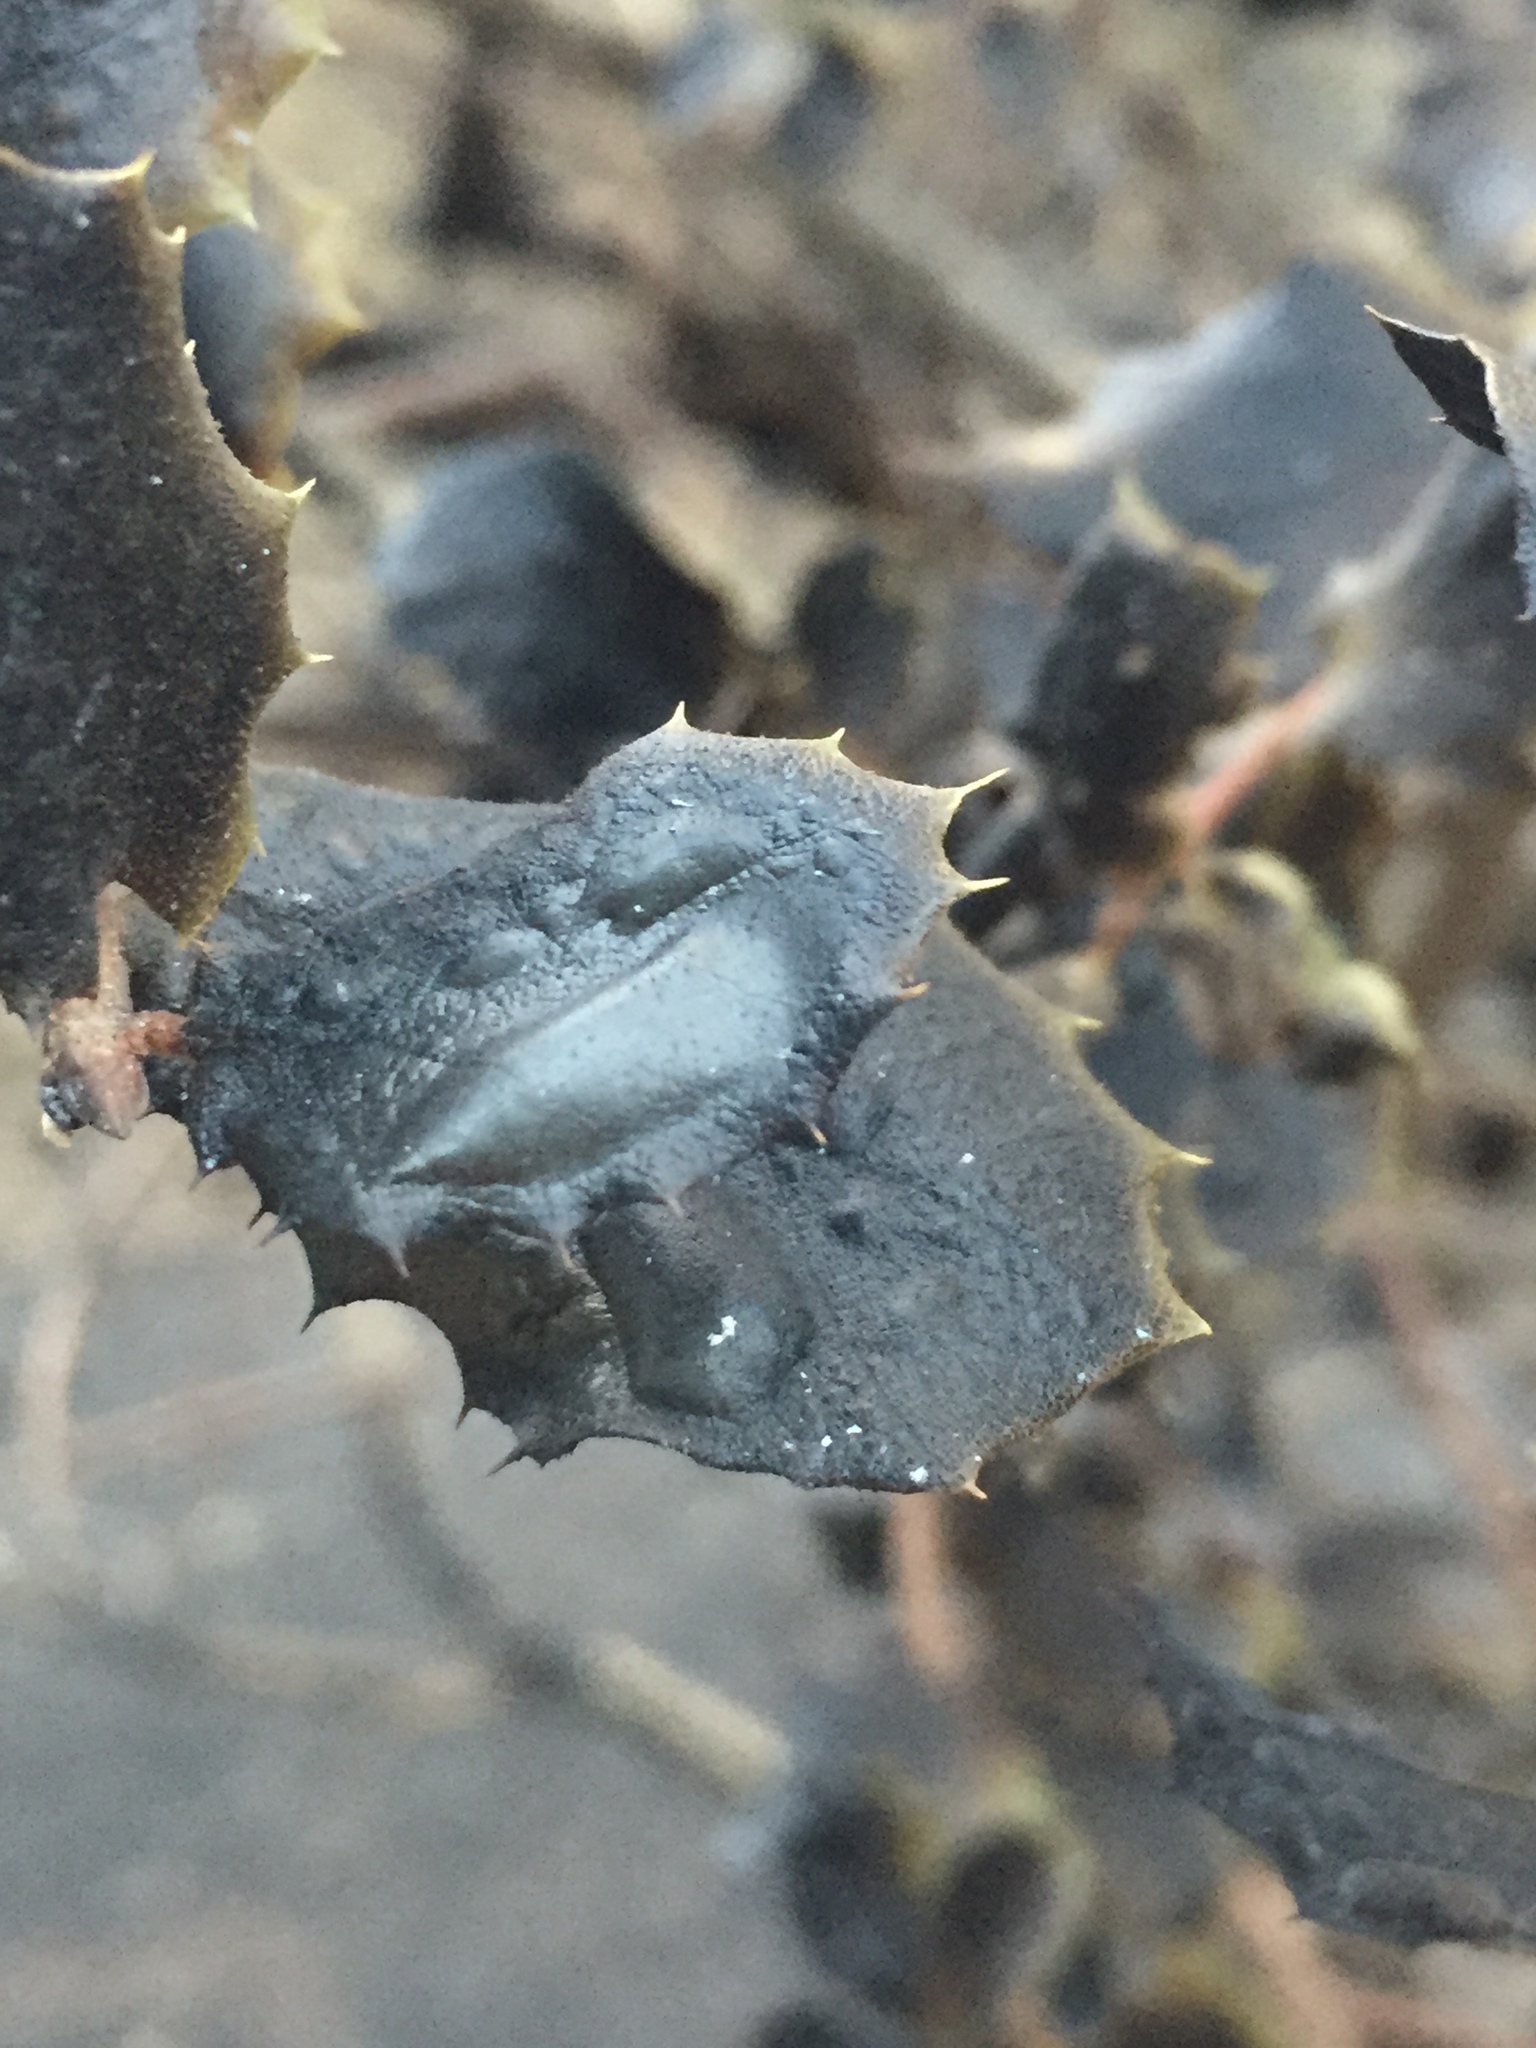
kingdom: Plantae
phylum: Tracheophyta
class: Magnoliopsida
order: Fagales
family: Fagaceae
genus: Quercus
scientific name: Quercus agrifolia
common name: California live oak
